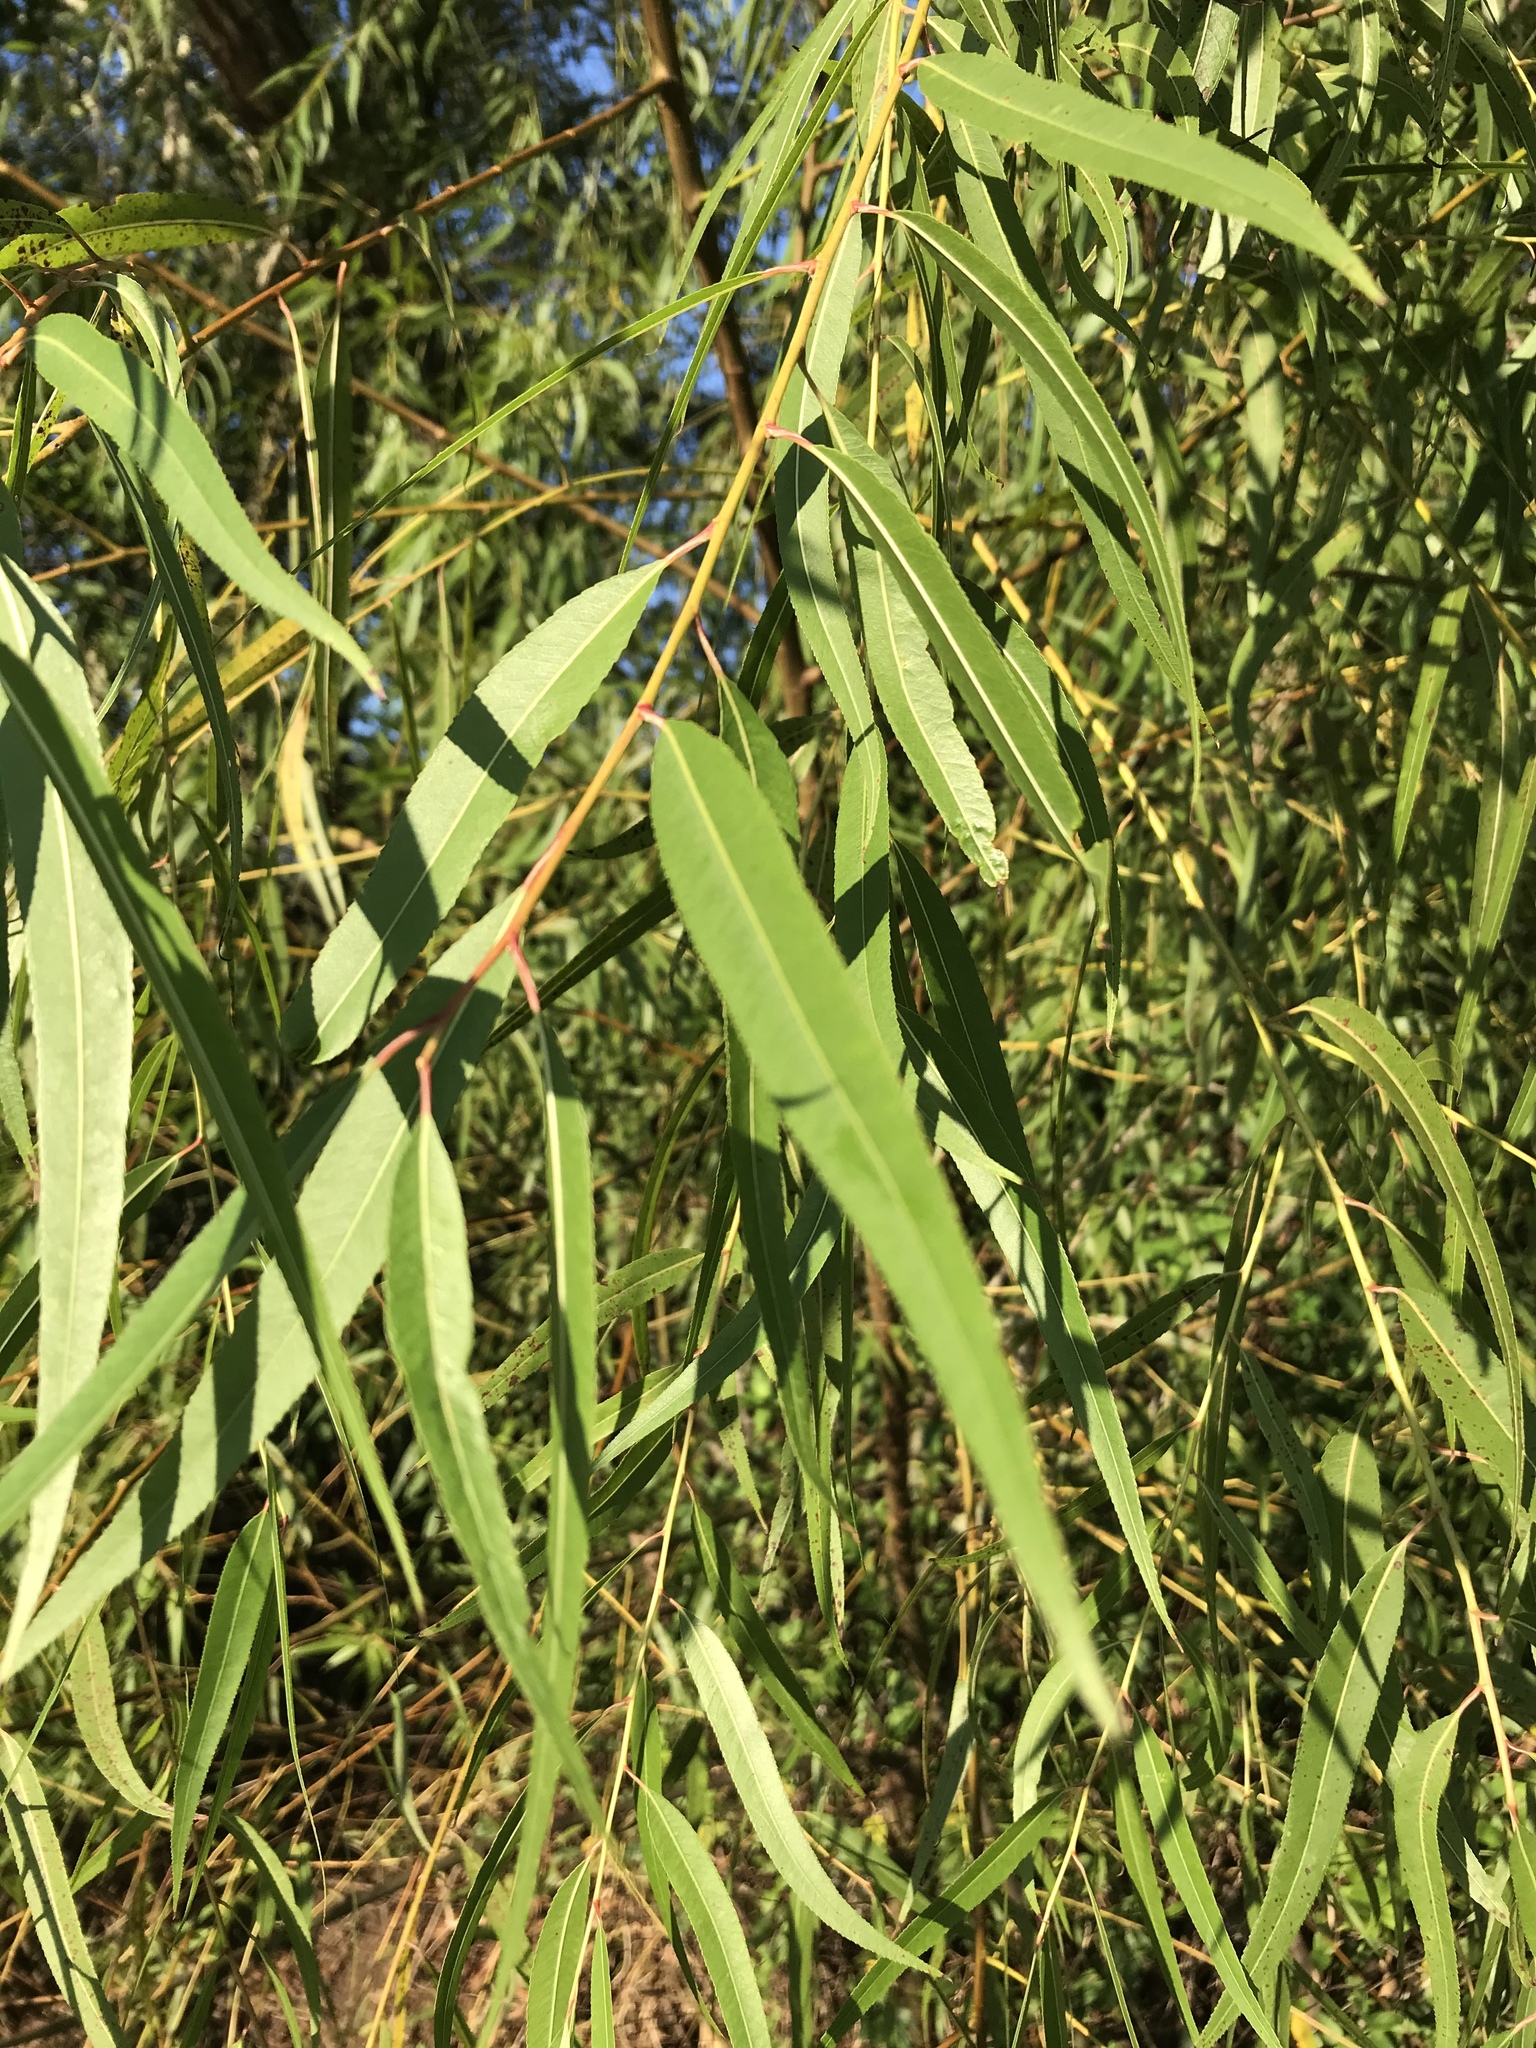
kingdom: Plantae
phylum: Tracheophyta
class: Magnoliopsida
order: Malpighiales
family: Salicaceae
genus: Salix
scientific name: Salix nigra
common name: Black willow
